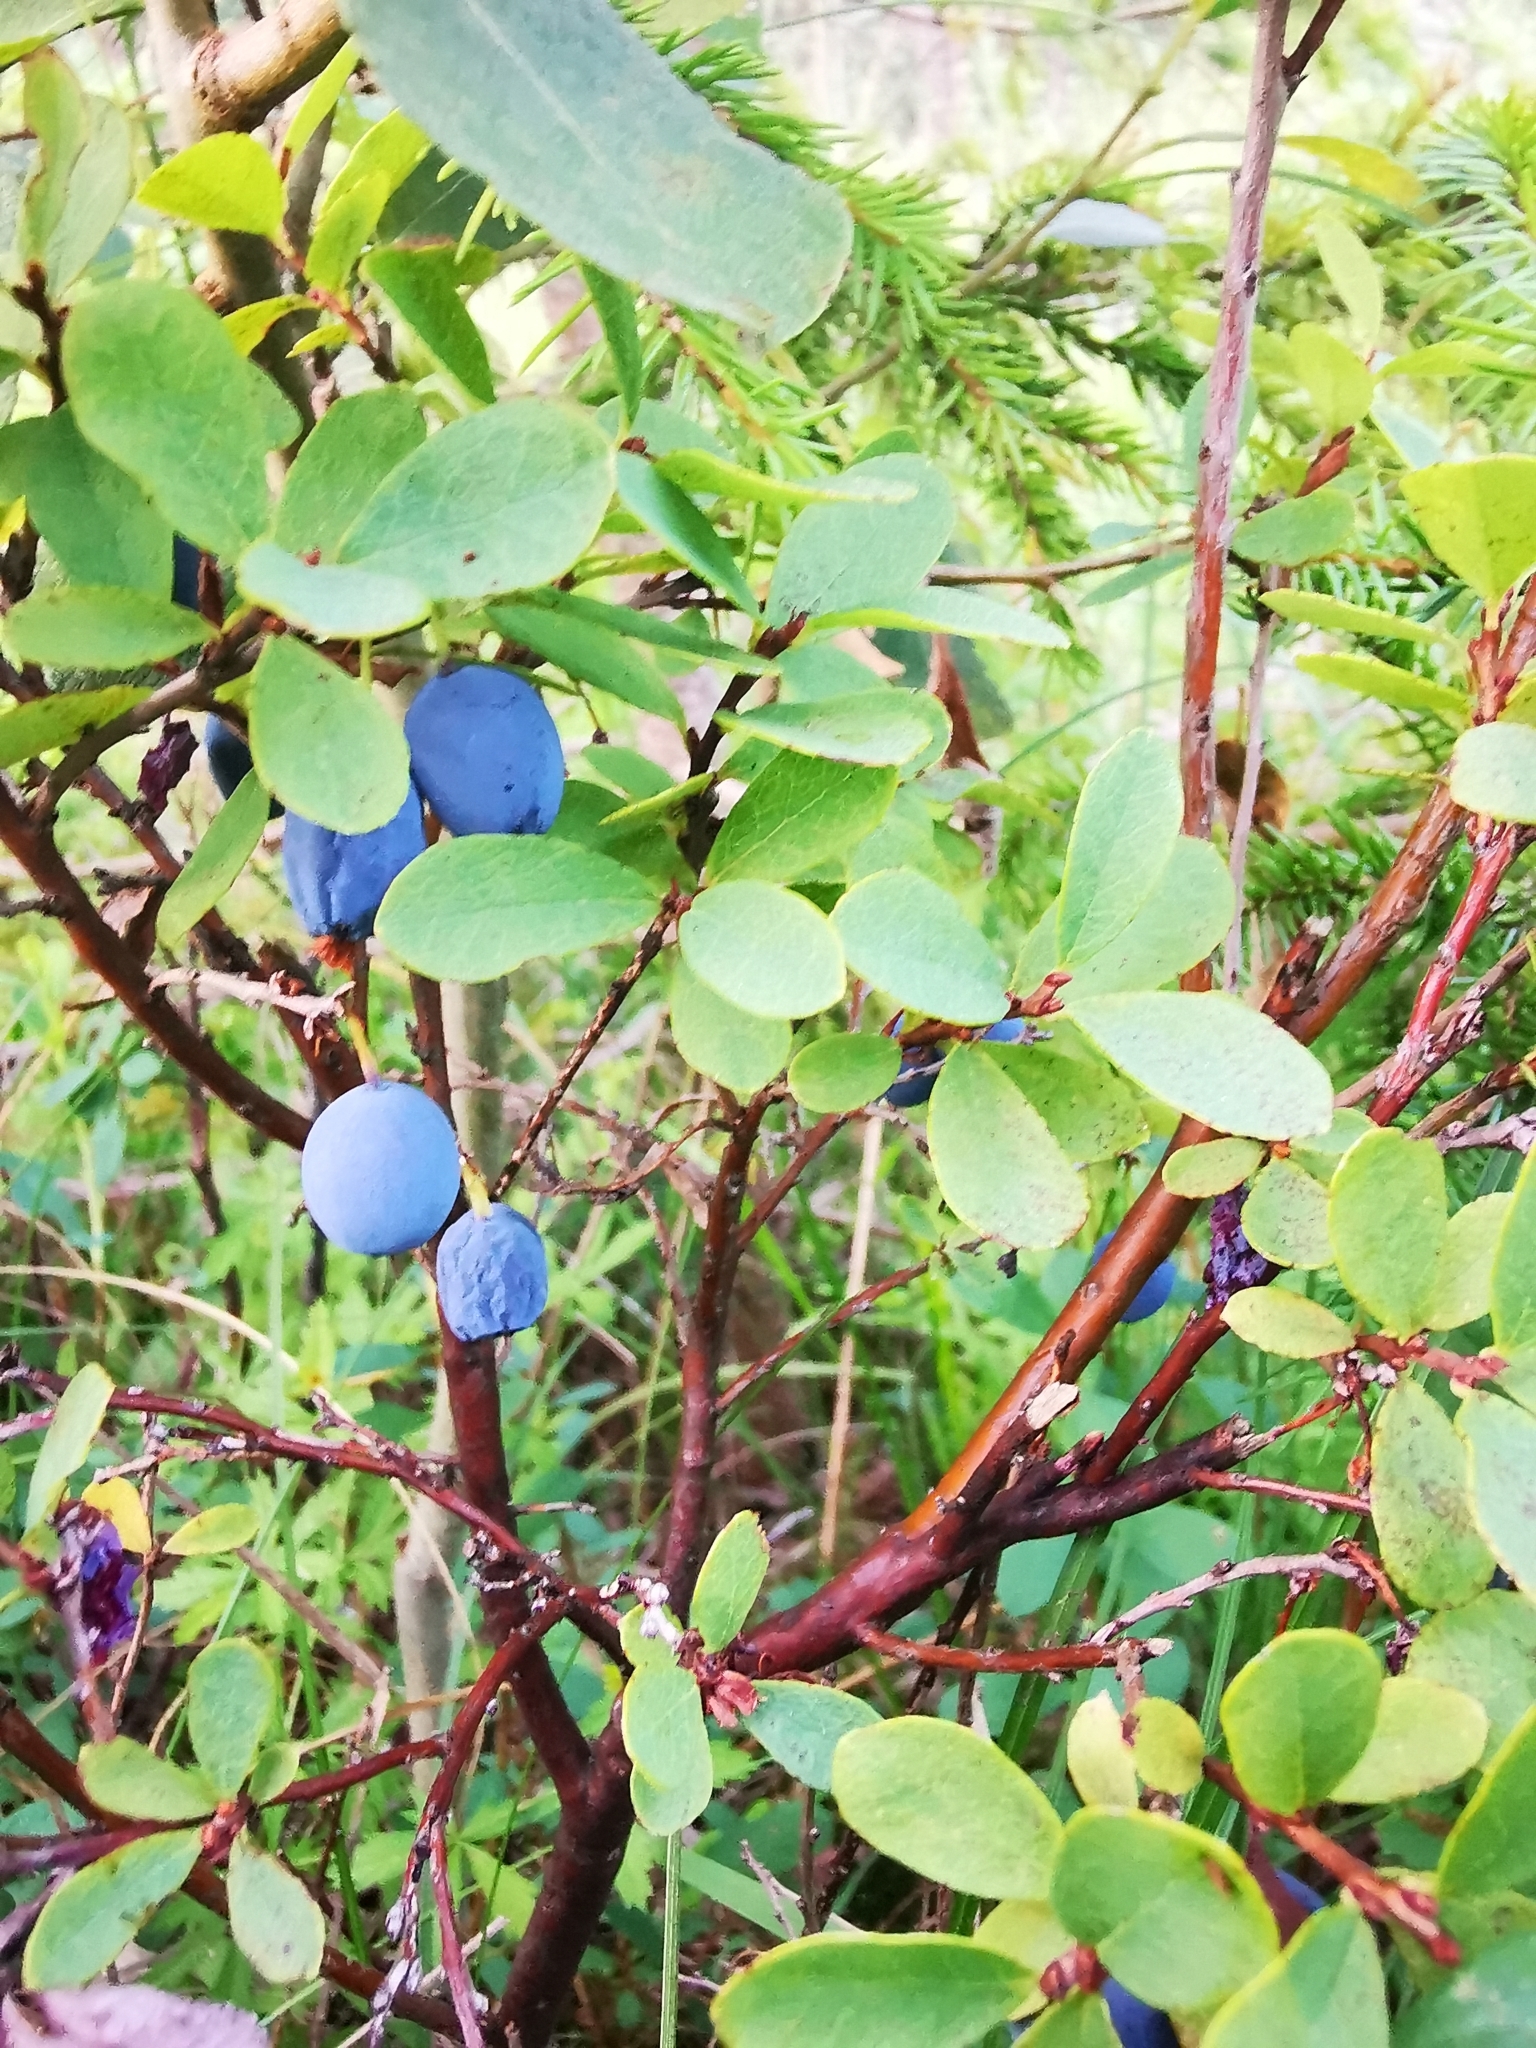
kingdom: Plantae
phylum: Tracheophyta
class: Magnoliopsida
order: Ericales
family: Ericaceae
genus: Vaccinium
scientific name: Vaccinium uliginosum
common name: Bog bilberry
